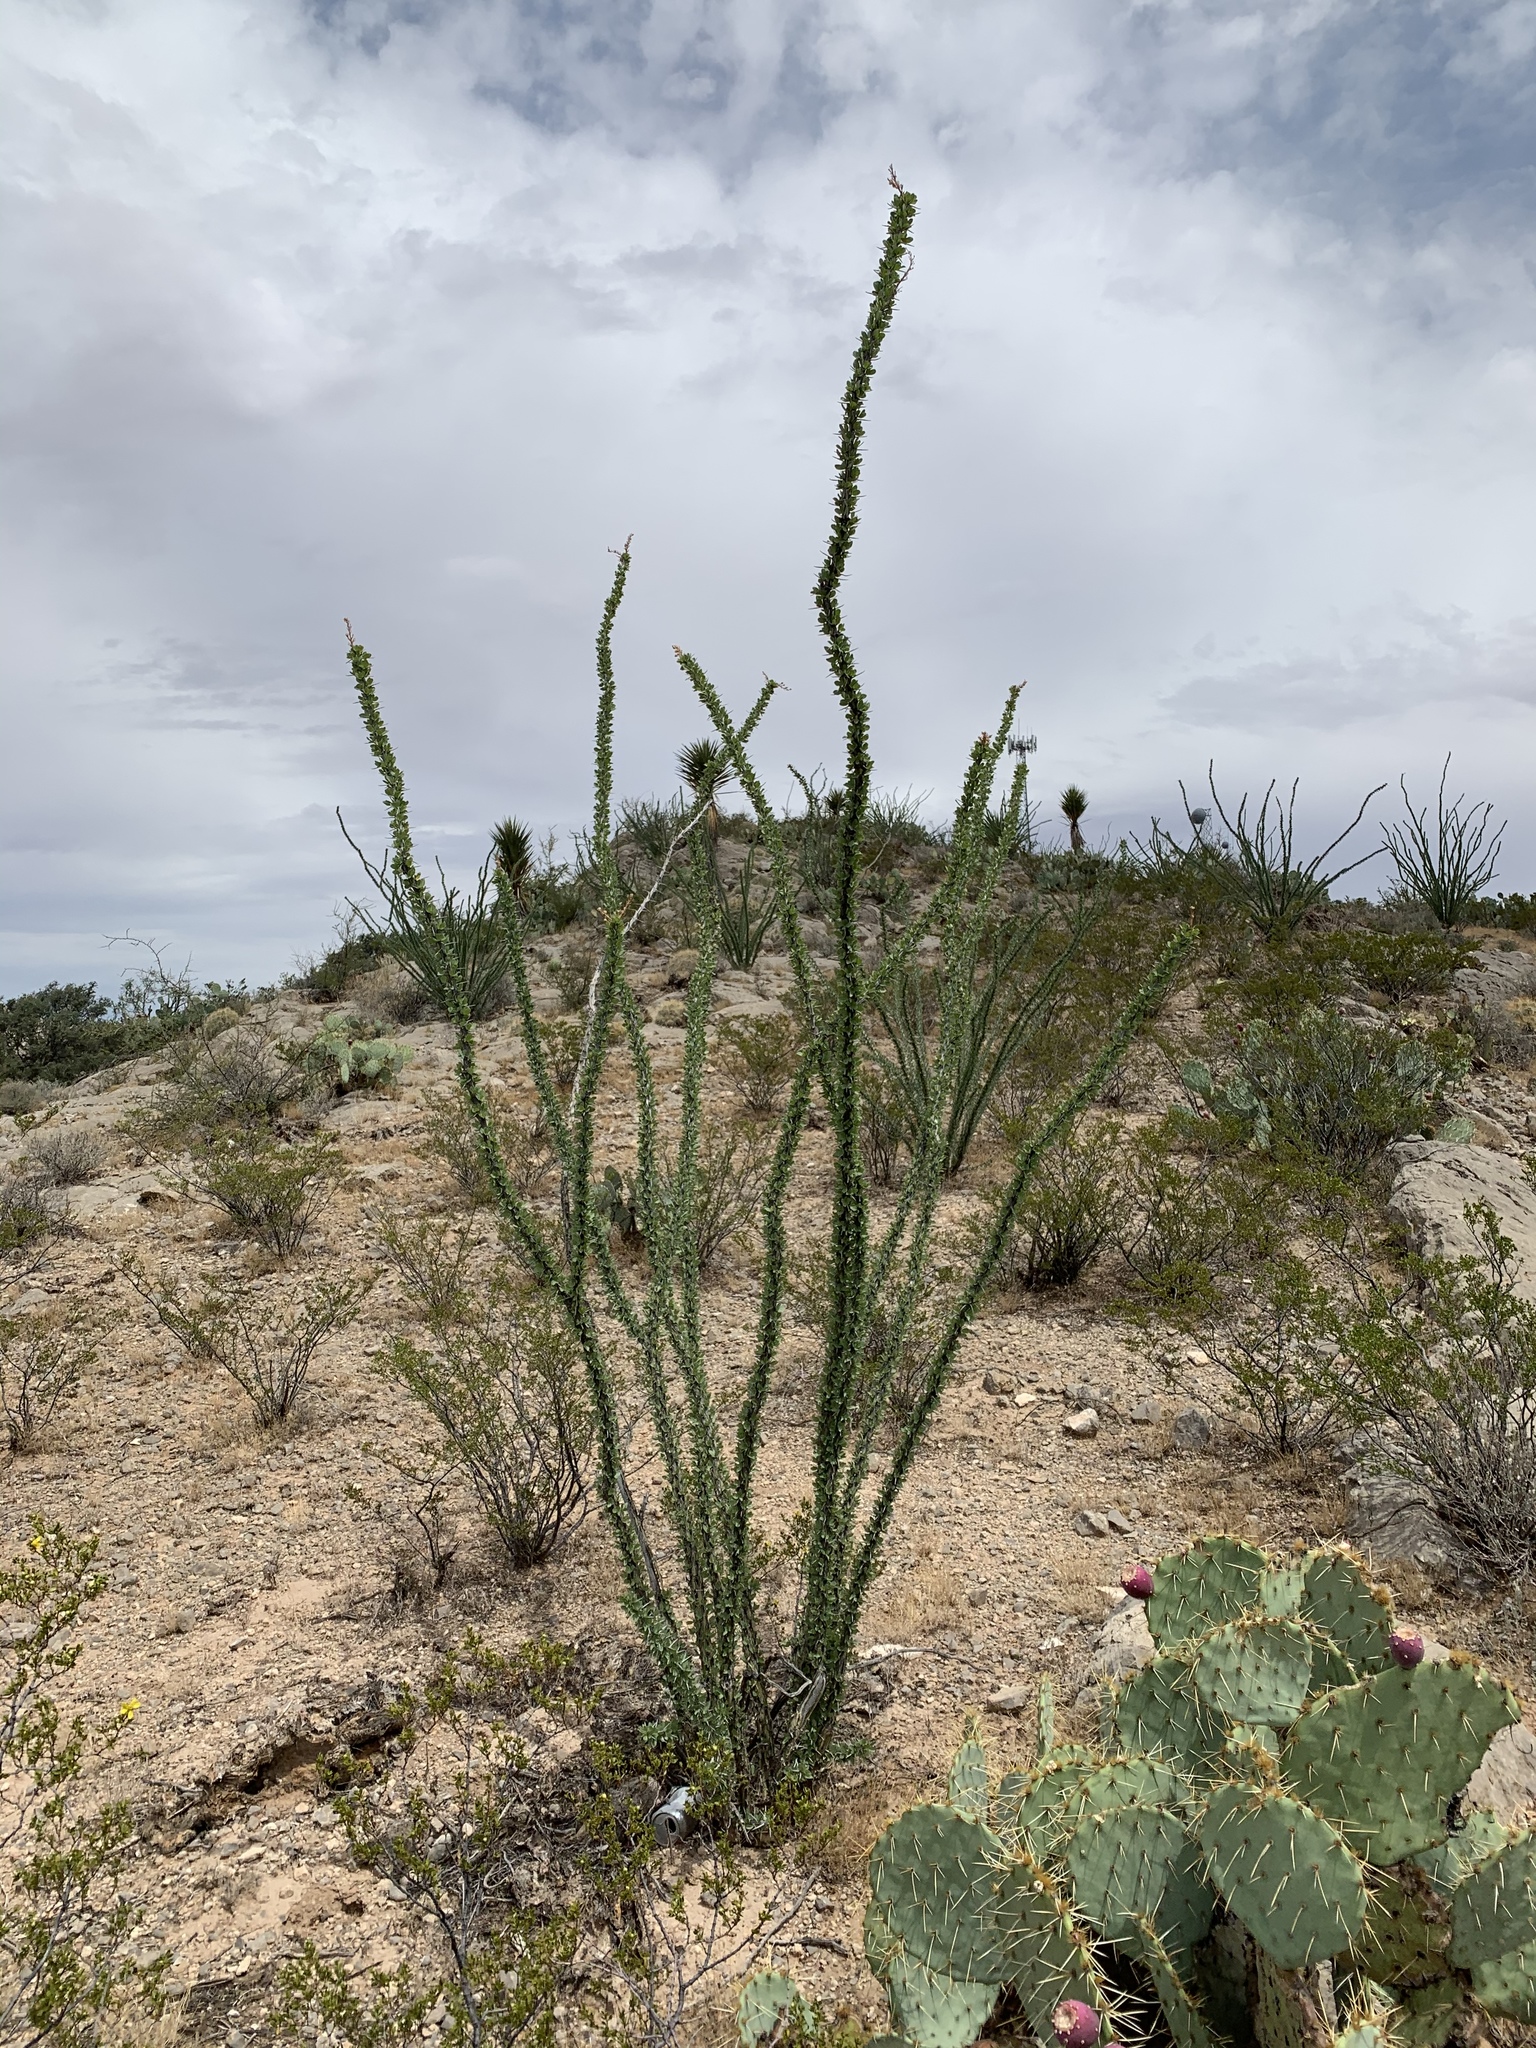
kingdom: Plantae
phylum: Tracheophyta
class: Magnoliopsida
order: Ericales
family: Fouquieriaceae
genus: Fouquieria
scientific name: Fouquieria splendens
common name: Vine-cactus
